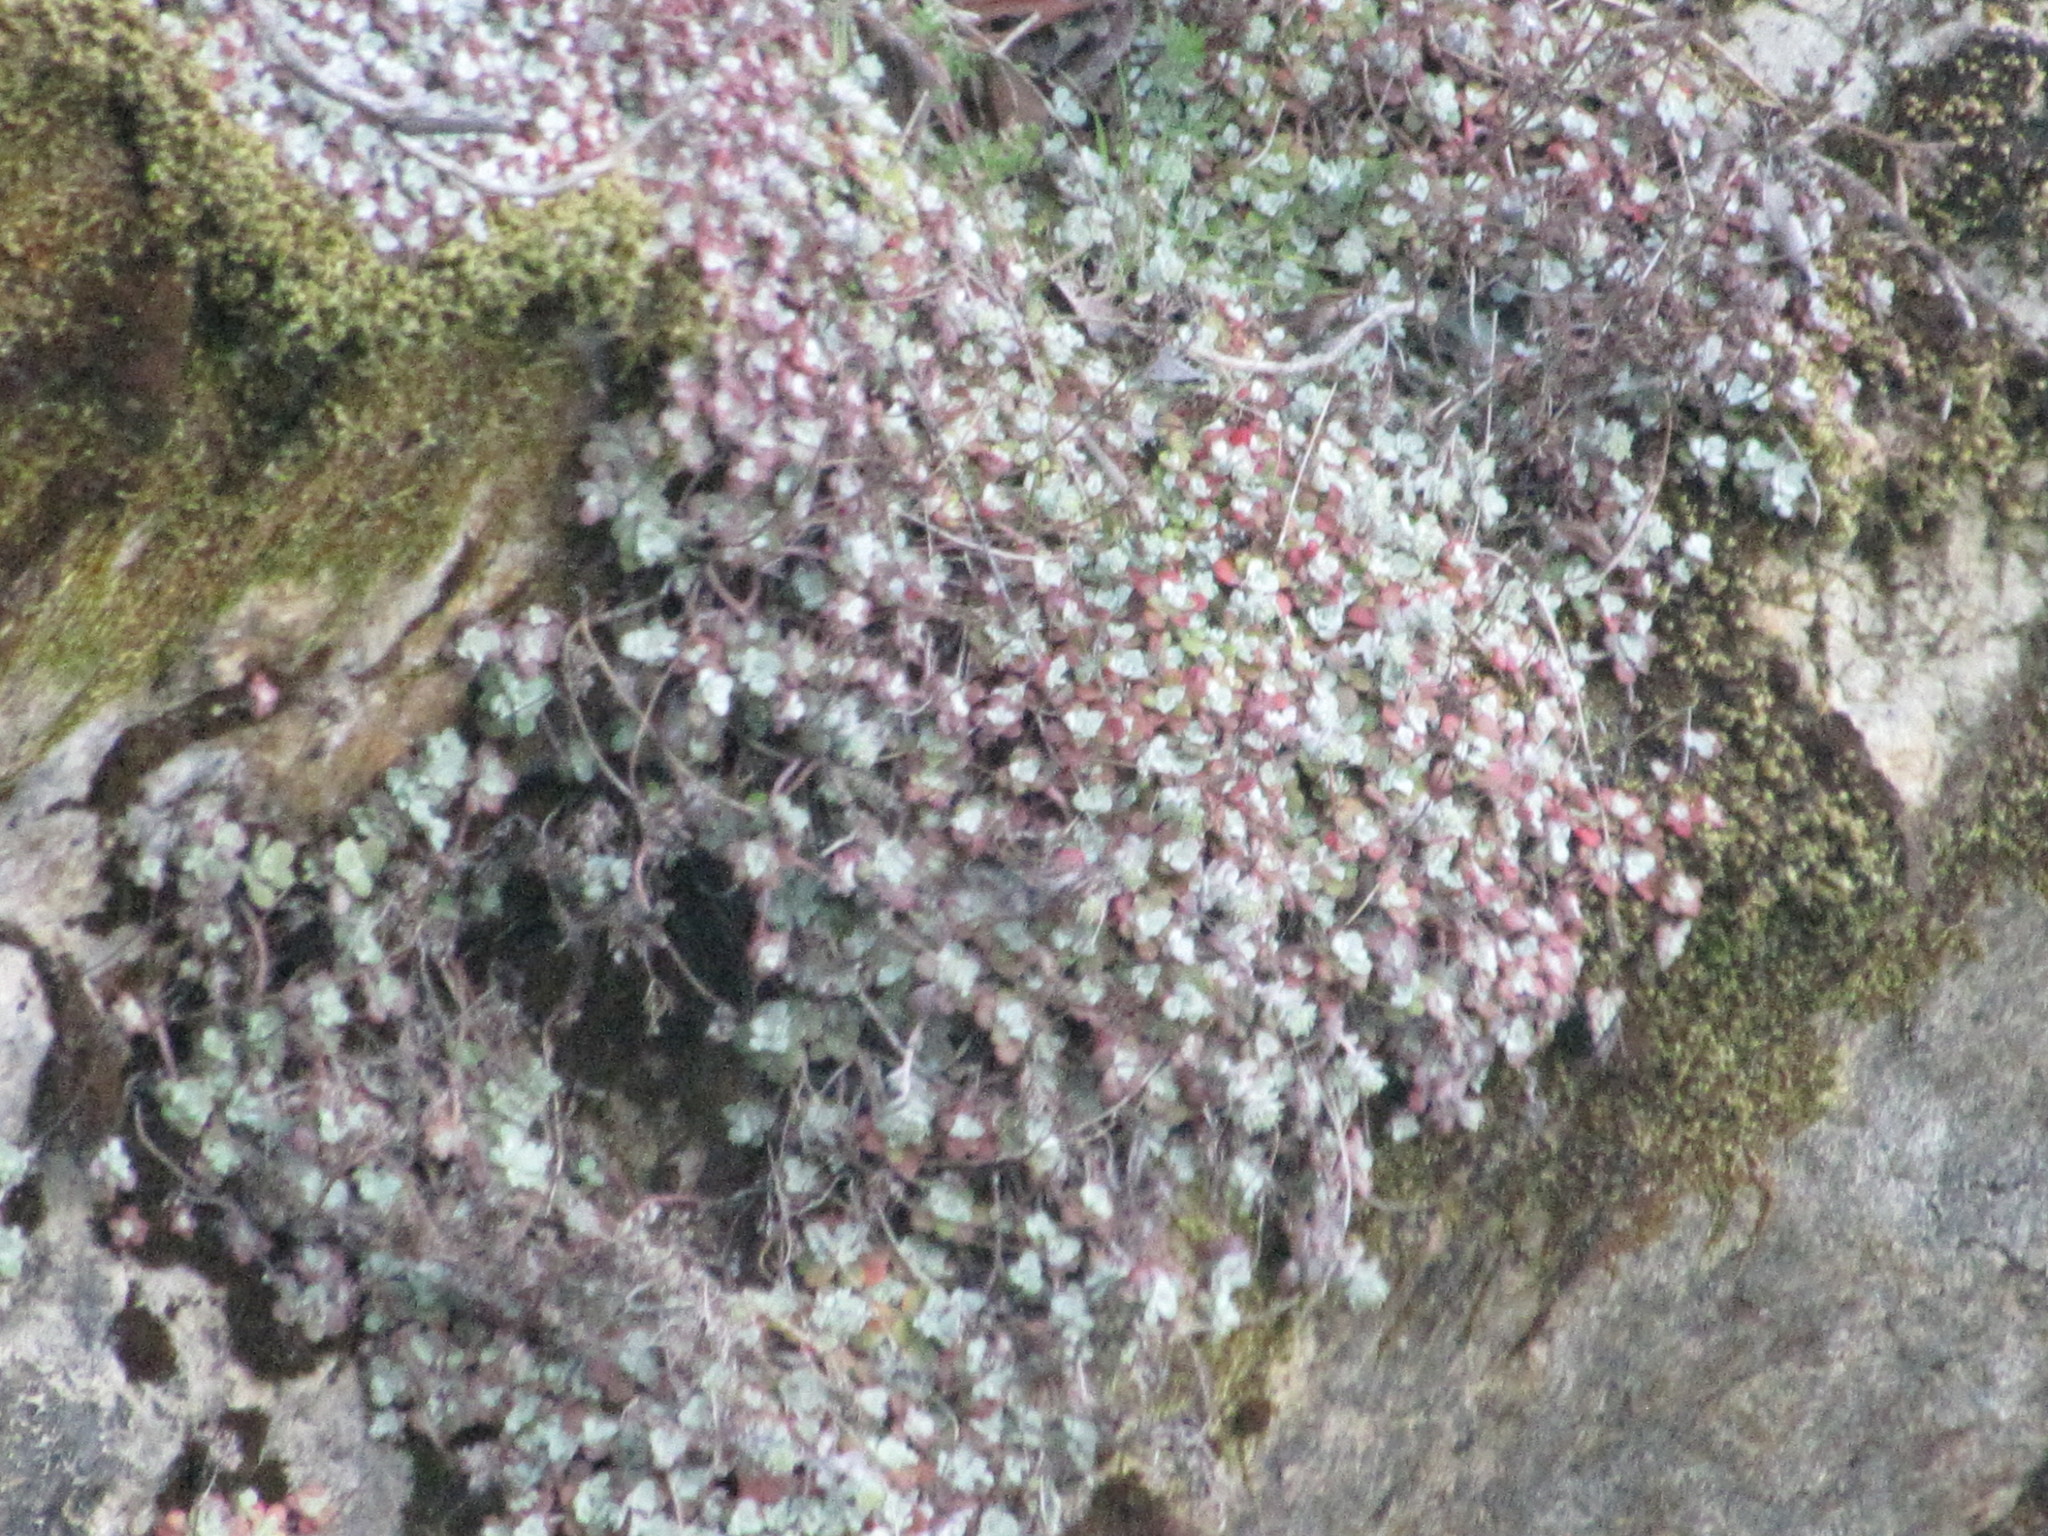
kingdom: Plantae
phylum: Tracheophyta
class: Magnoliopsida
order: Saxifragales
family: Crassulaceae
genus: Sedum
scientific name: Sedum spathulifolium
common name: Colorado stonecrop
